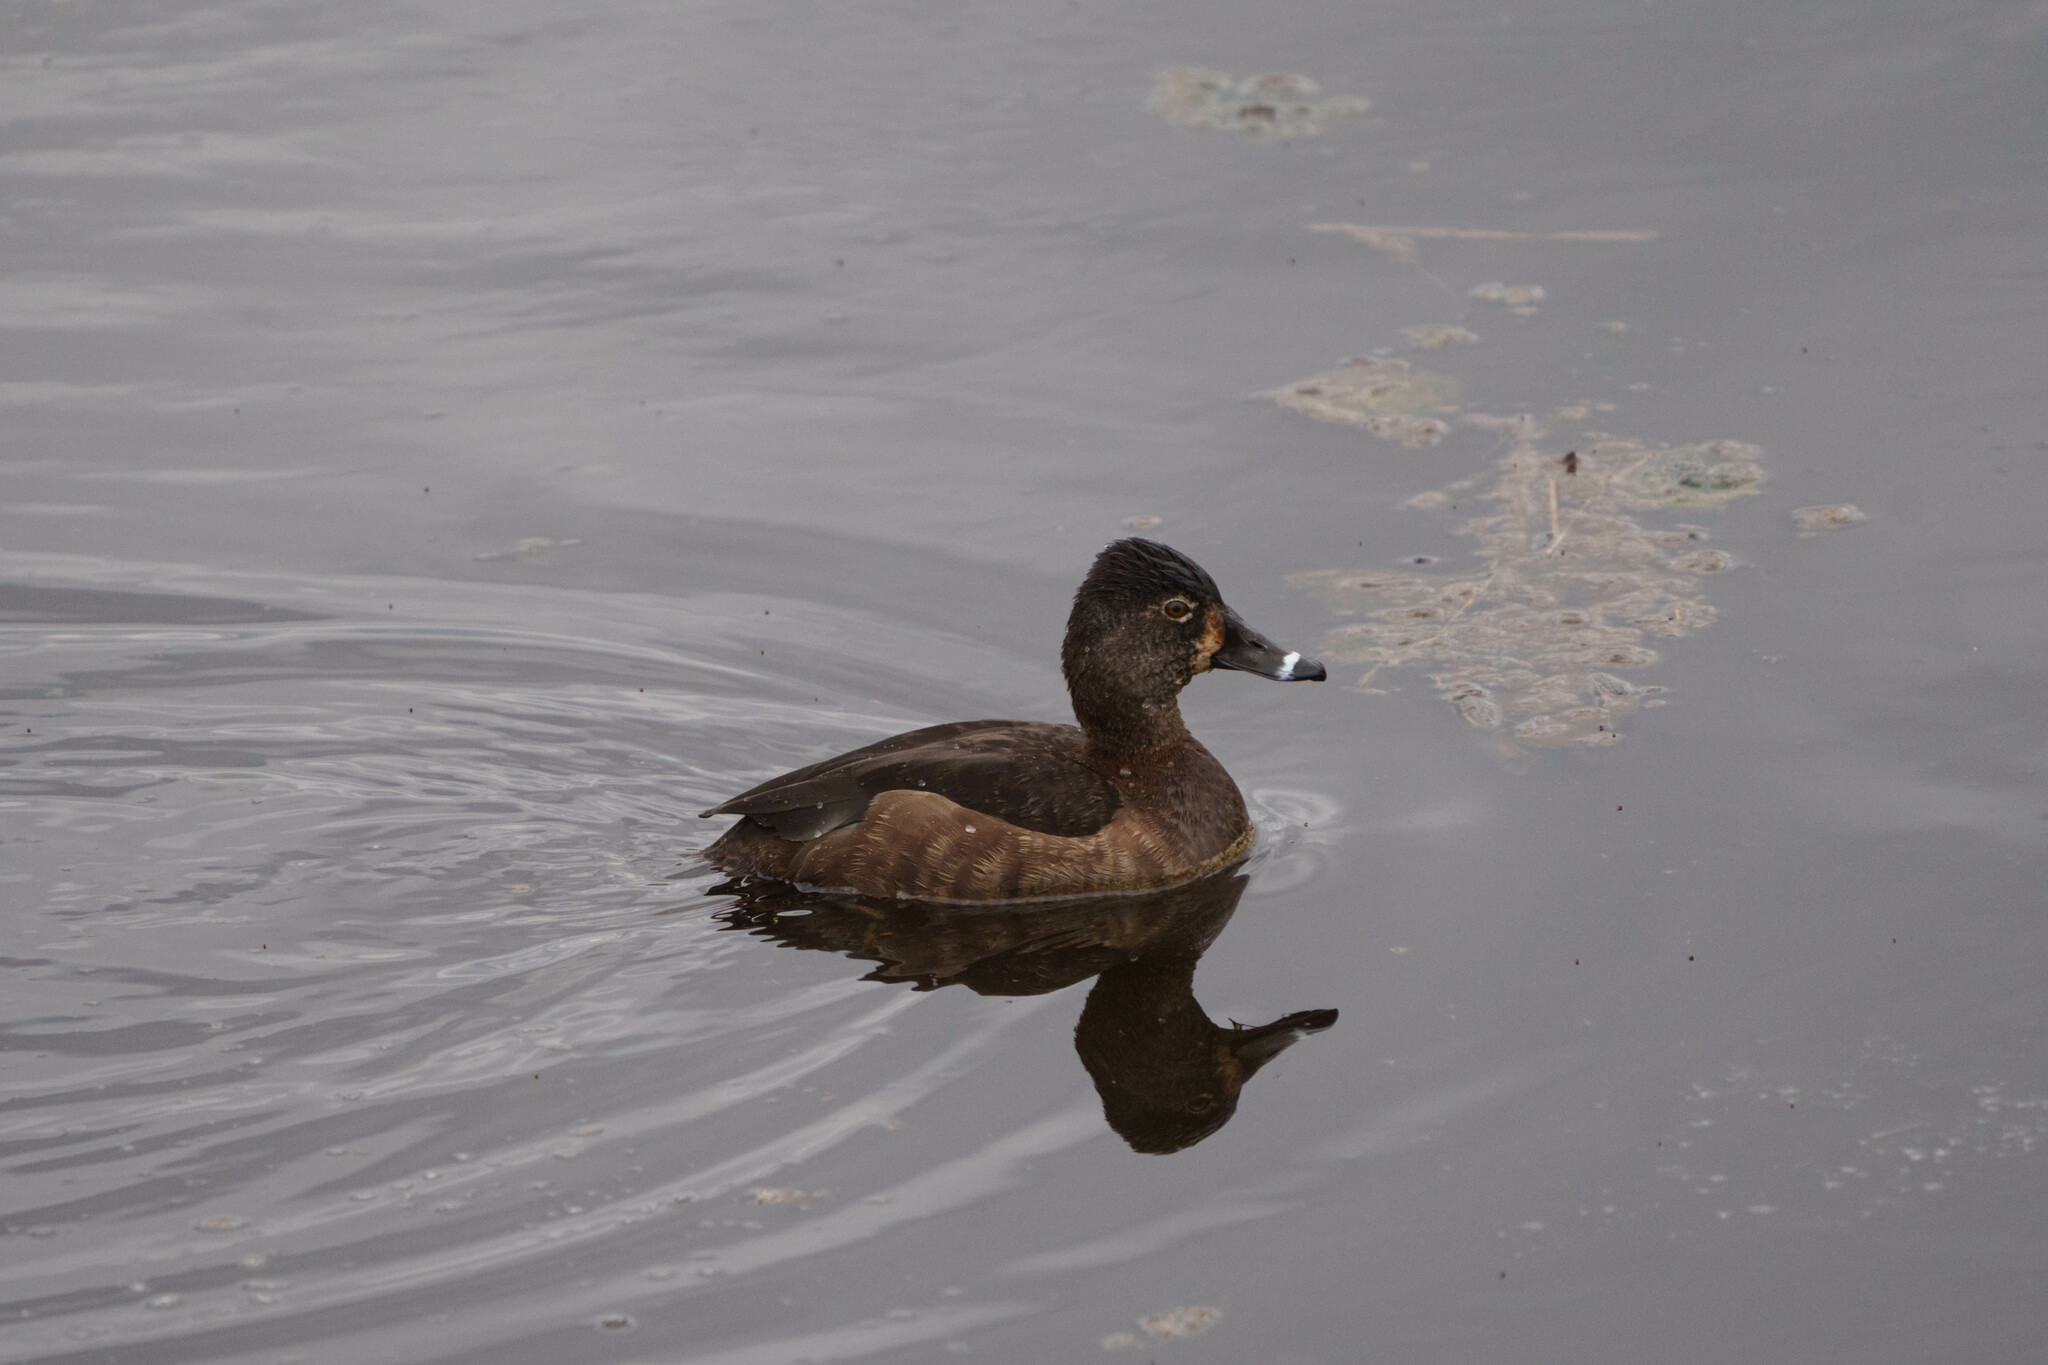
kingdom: Animalia
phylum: Chordata
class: Aves
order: Anseriformes
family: Anatidae
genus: Aythya
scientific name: Aythya collaris
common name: Ring-necked duck
